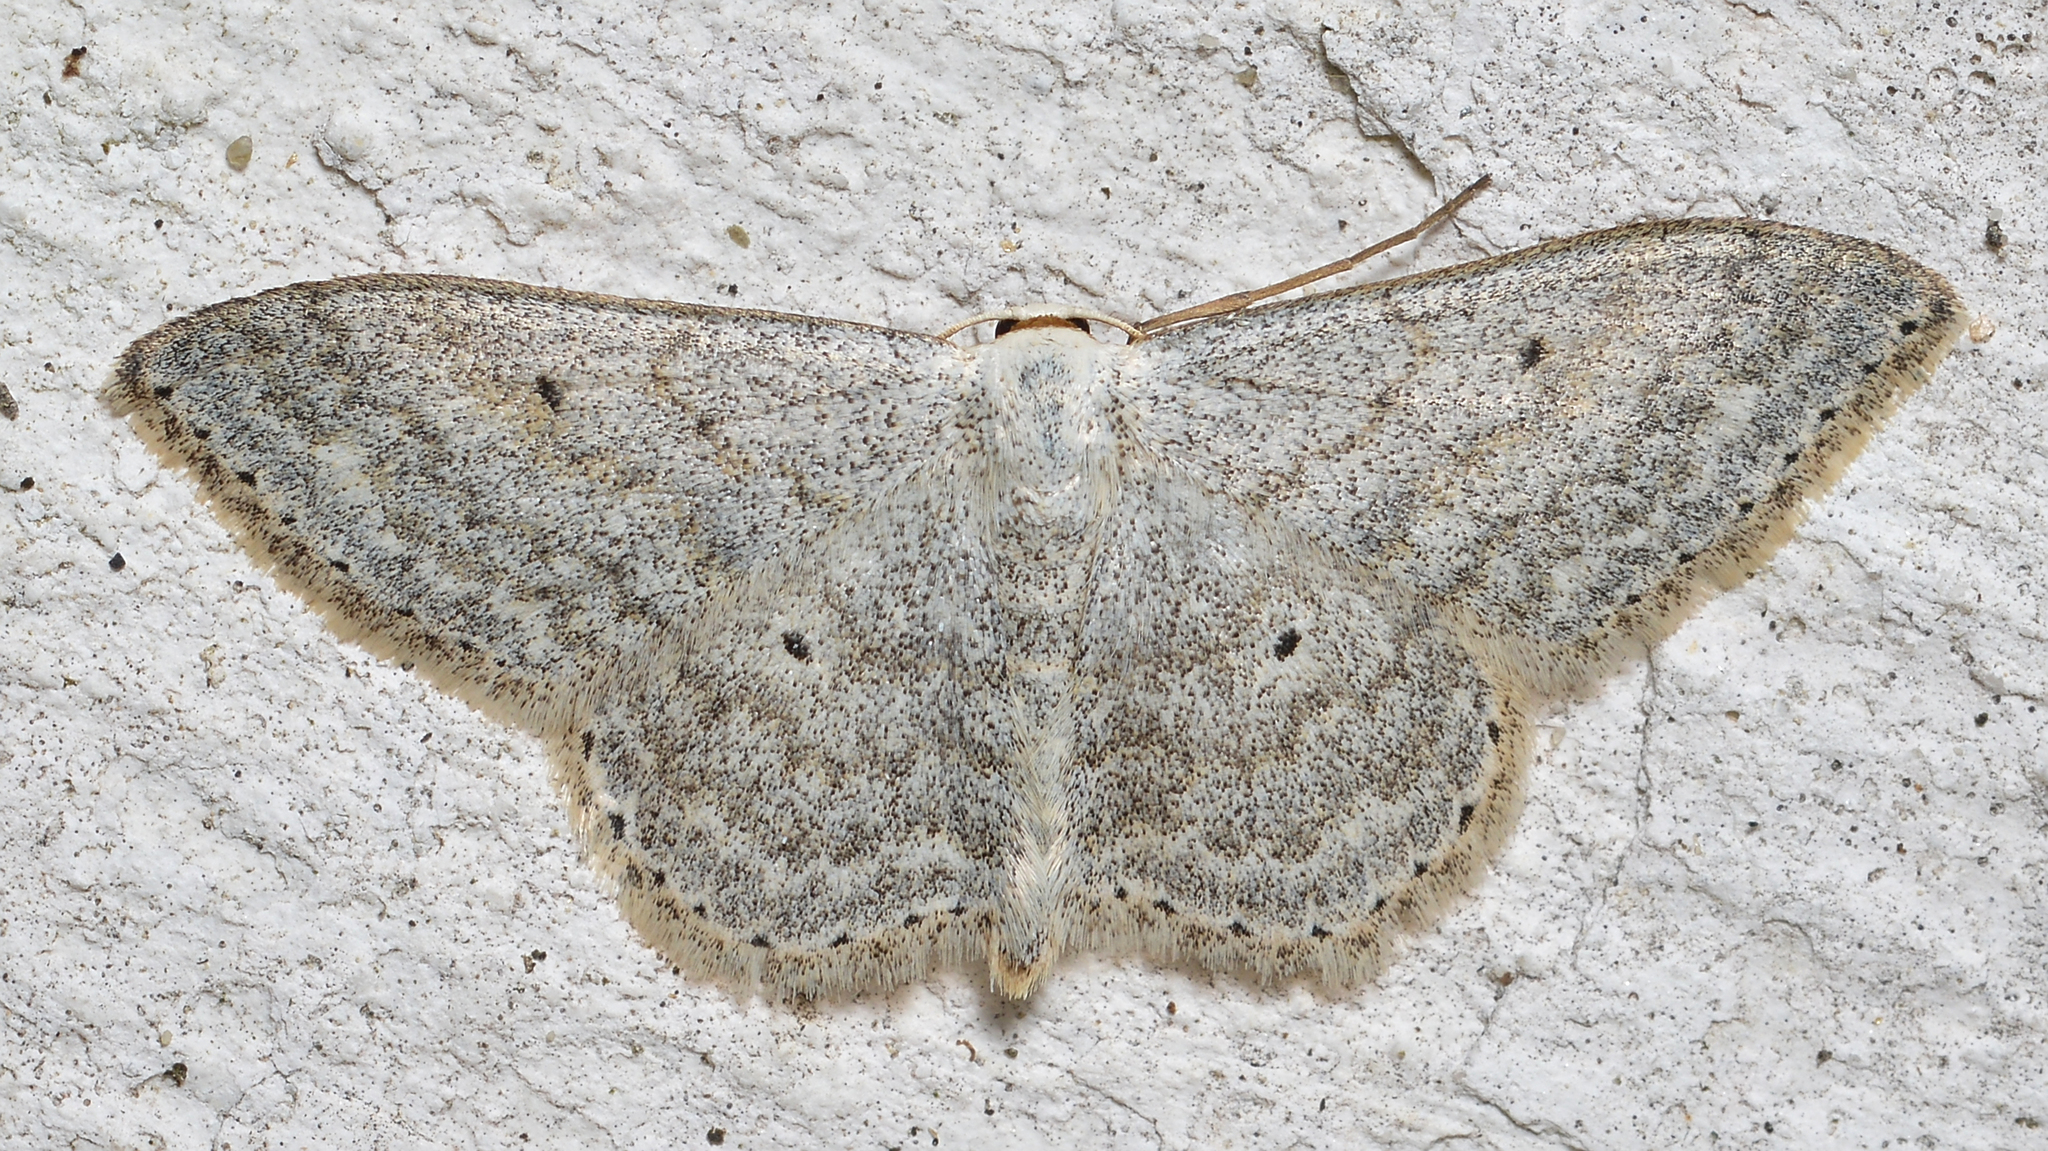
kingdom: Animalia
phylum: Arthropoda
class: Insecta
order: Lepidoptera
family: Geometridae
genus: Scopula
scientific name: Scopula incanata
